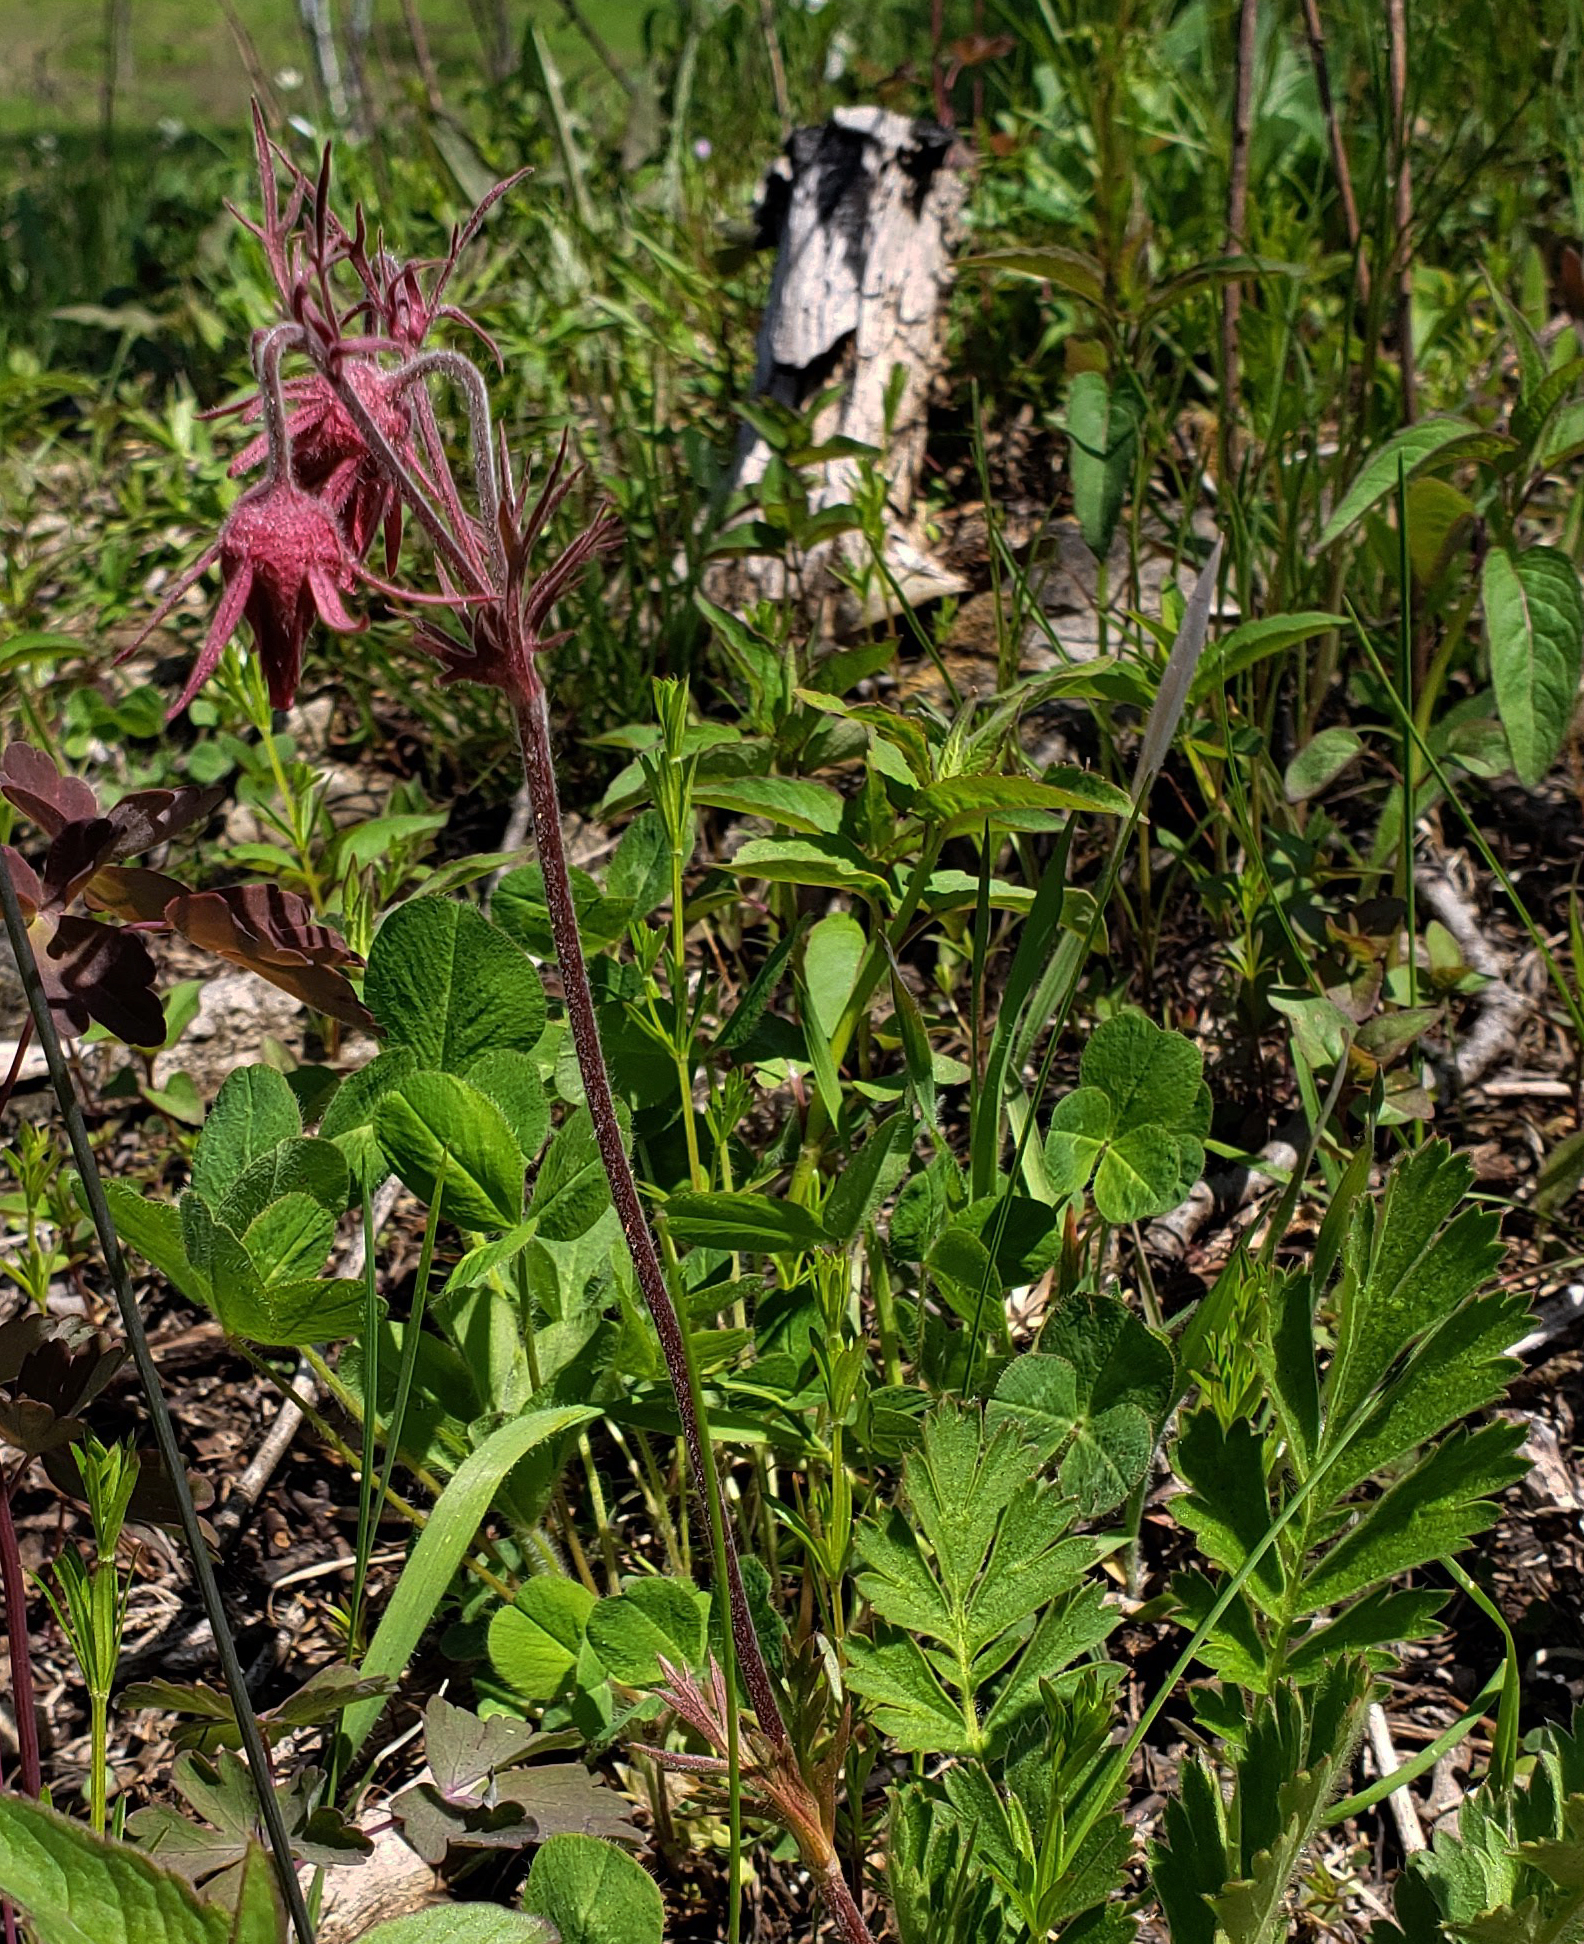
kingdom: Plantae
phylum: Tracheophyta
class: Magnoliopsida
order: Rosales
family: Rosaceae
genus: Geum
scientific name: Geum triflorum
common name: Old man's whiskers
